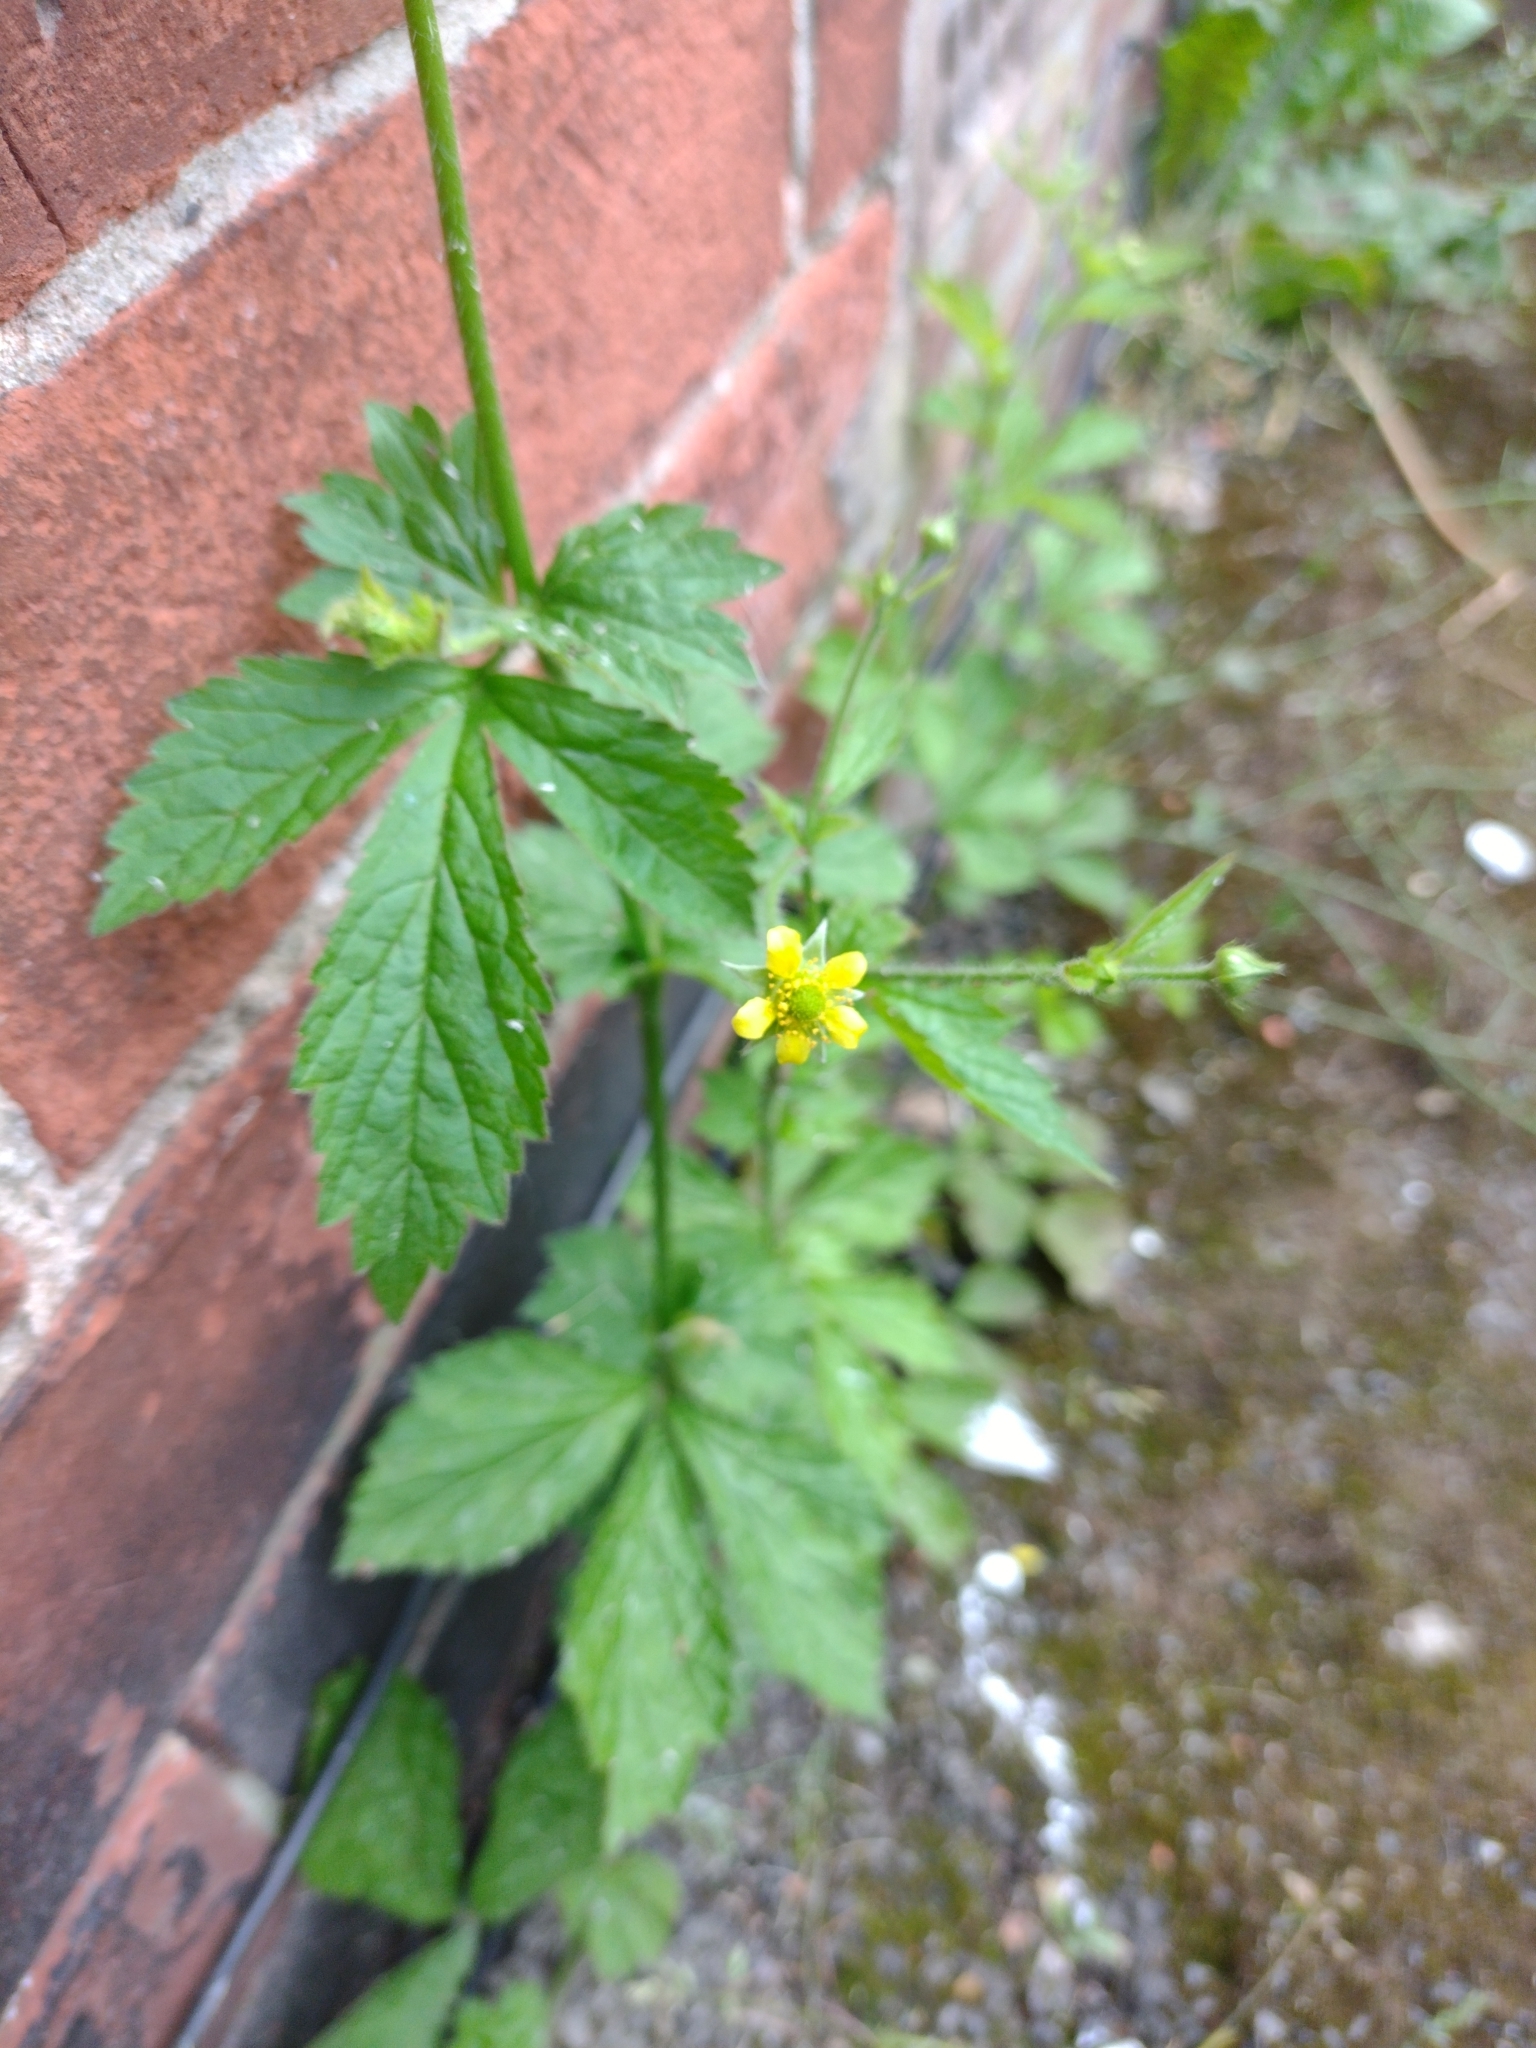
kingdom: Plantae
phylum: Tracheophyta
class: Magnoliopsida
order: Rosales
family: Rosaceae
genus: Geum
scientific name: Geum urbanum
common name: Wood avens
